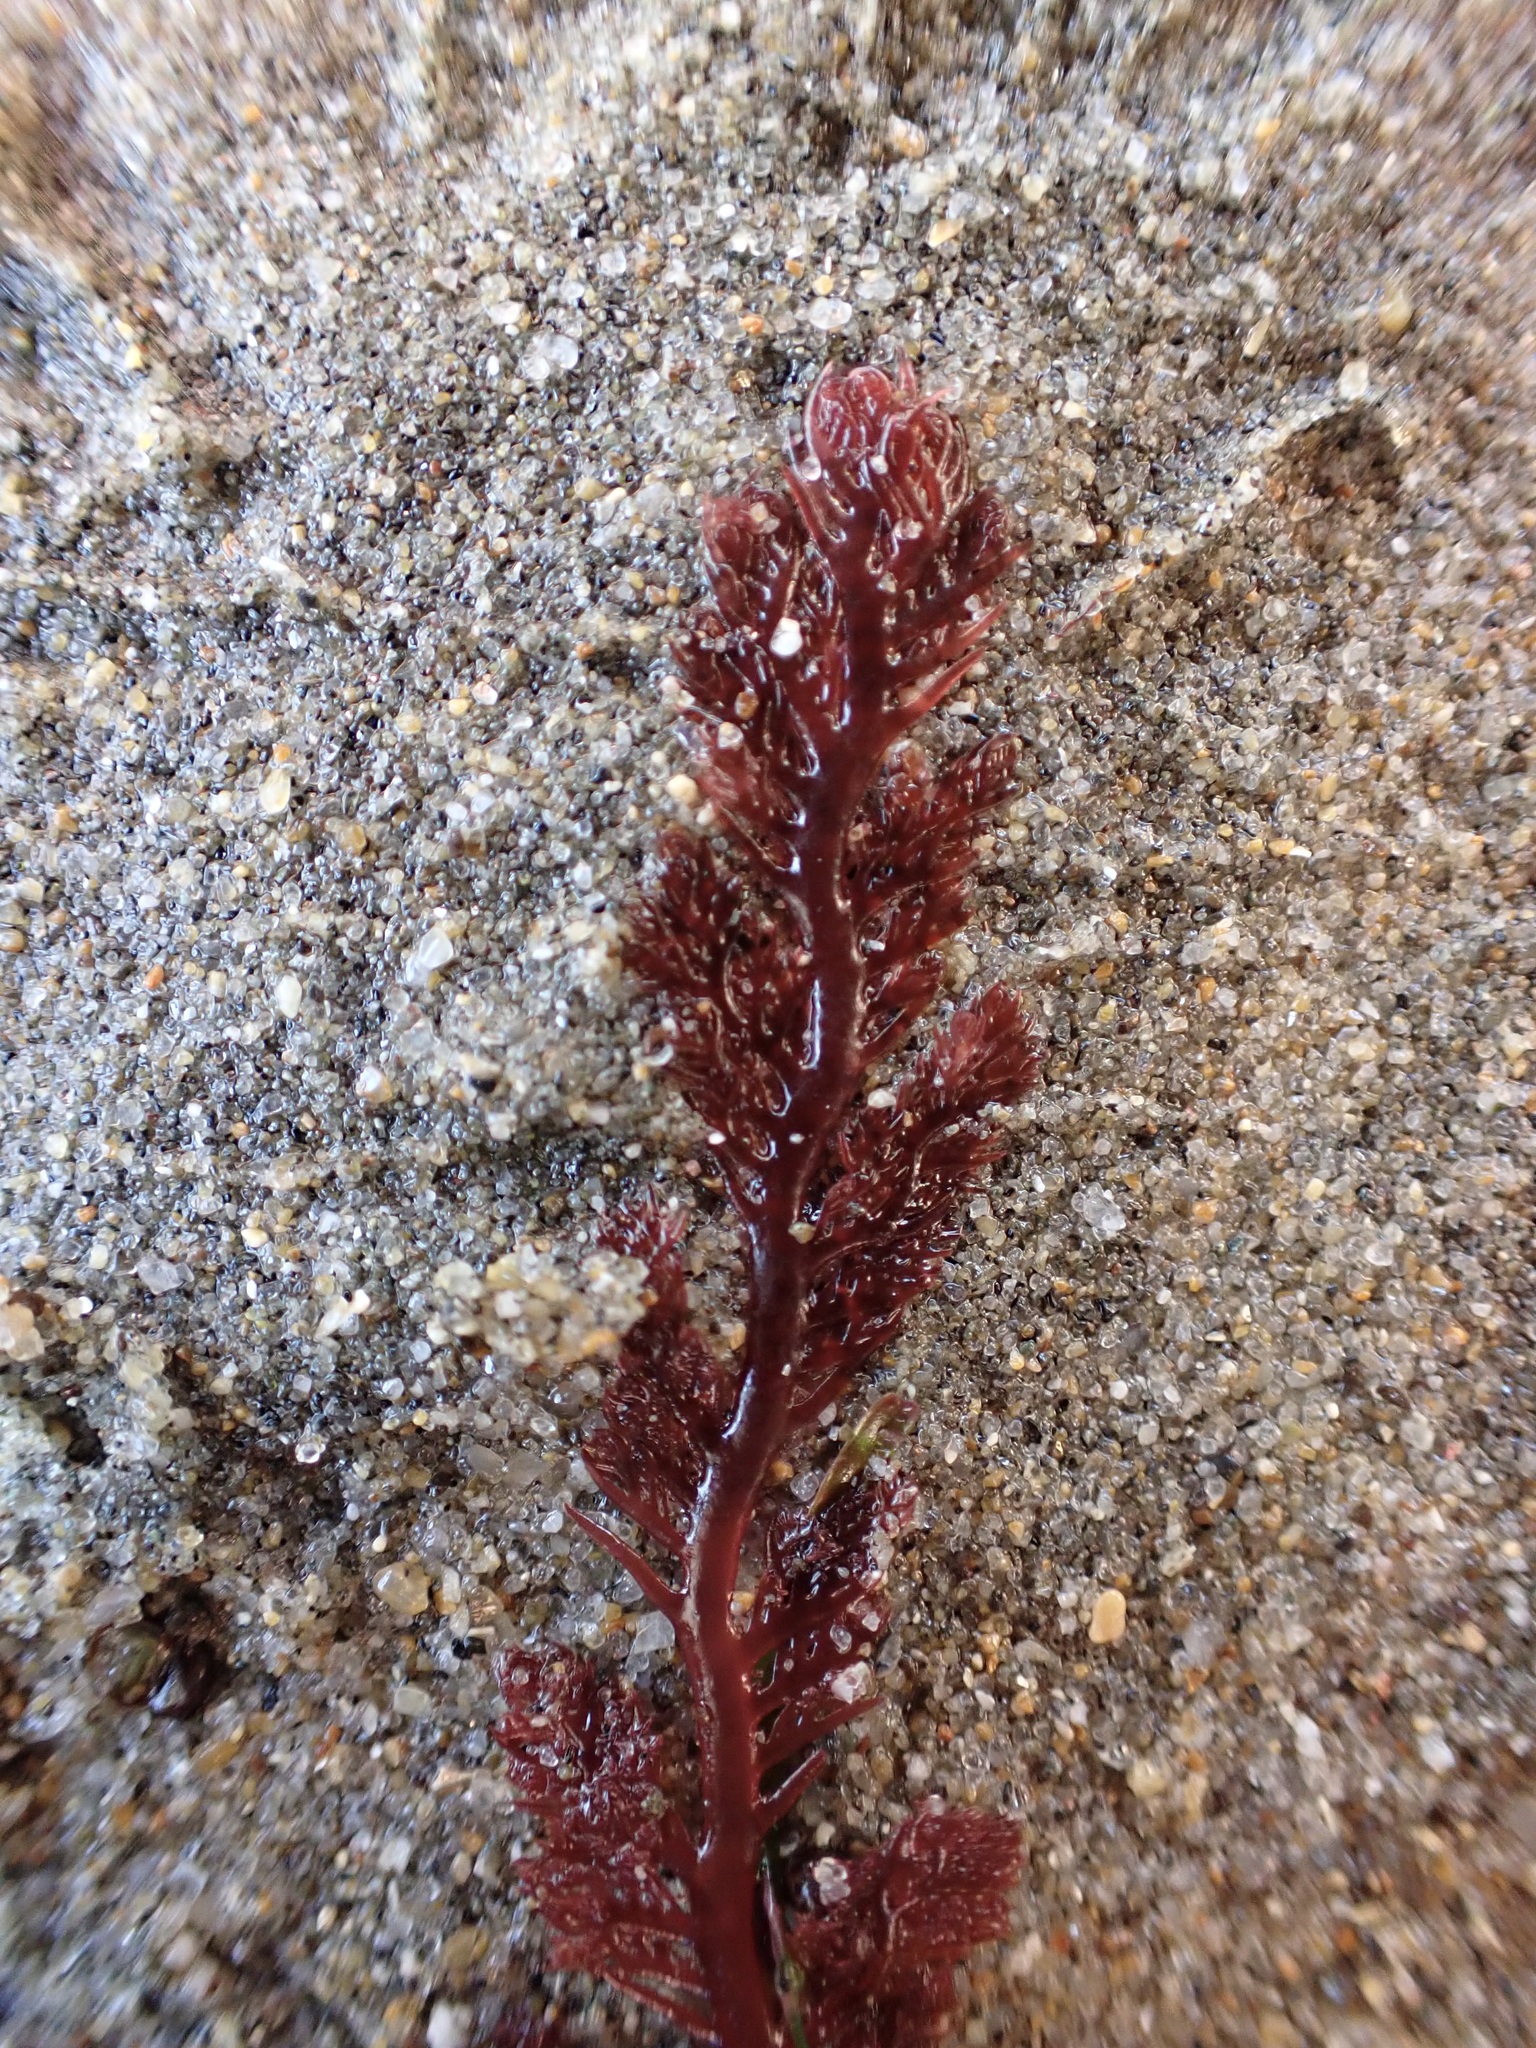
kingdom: Plantae
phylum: Rhodophyta
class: Florideophyceae
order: Plocamiales
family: Plocamiaceae
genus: Plocamium
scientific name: Plocamium cartilagineum
